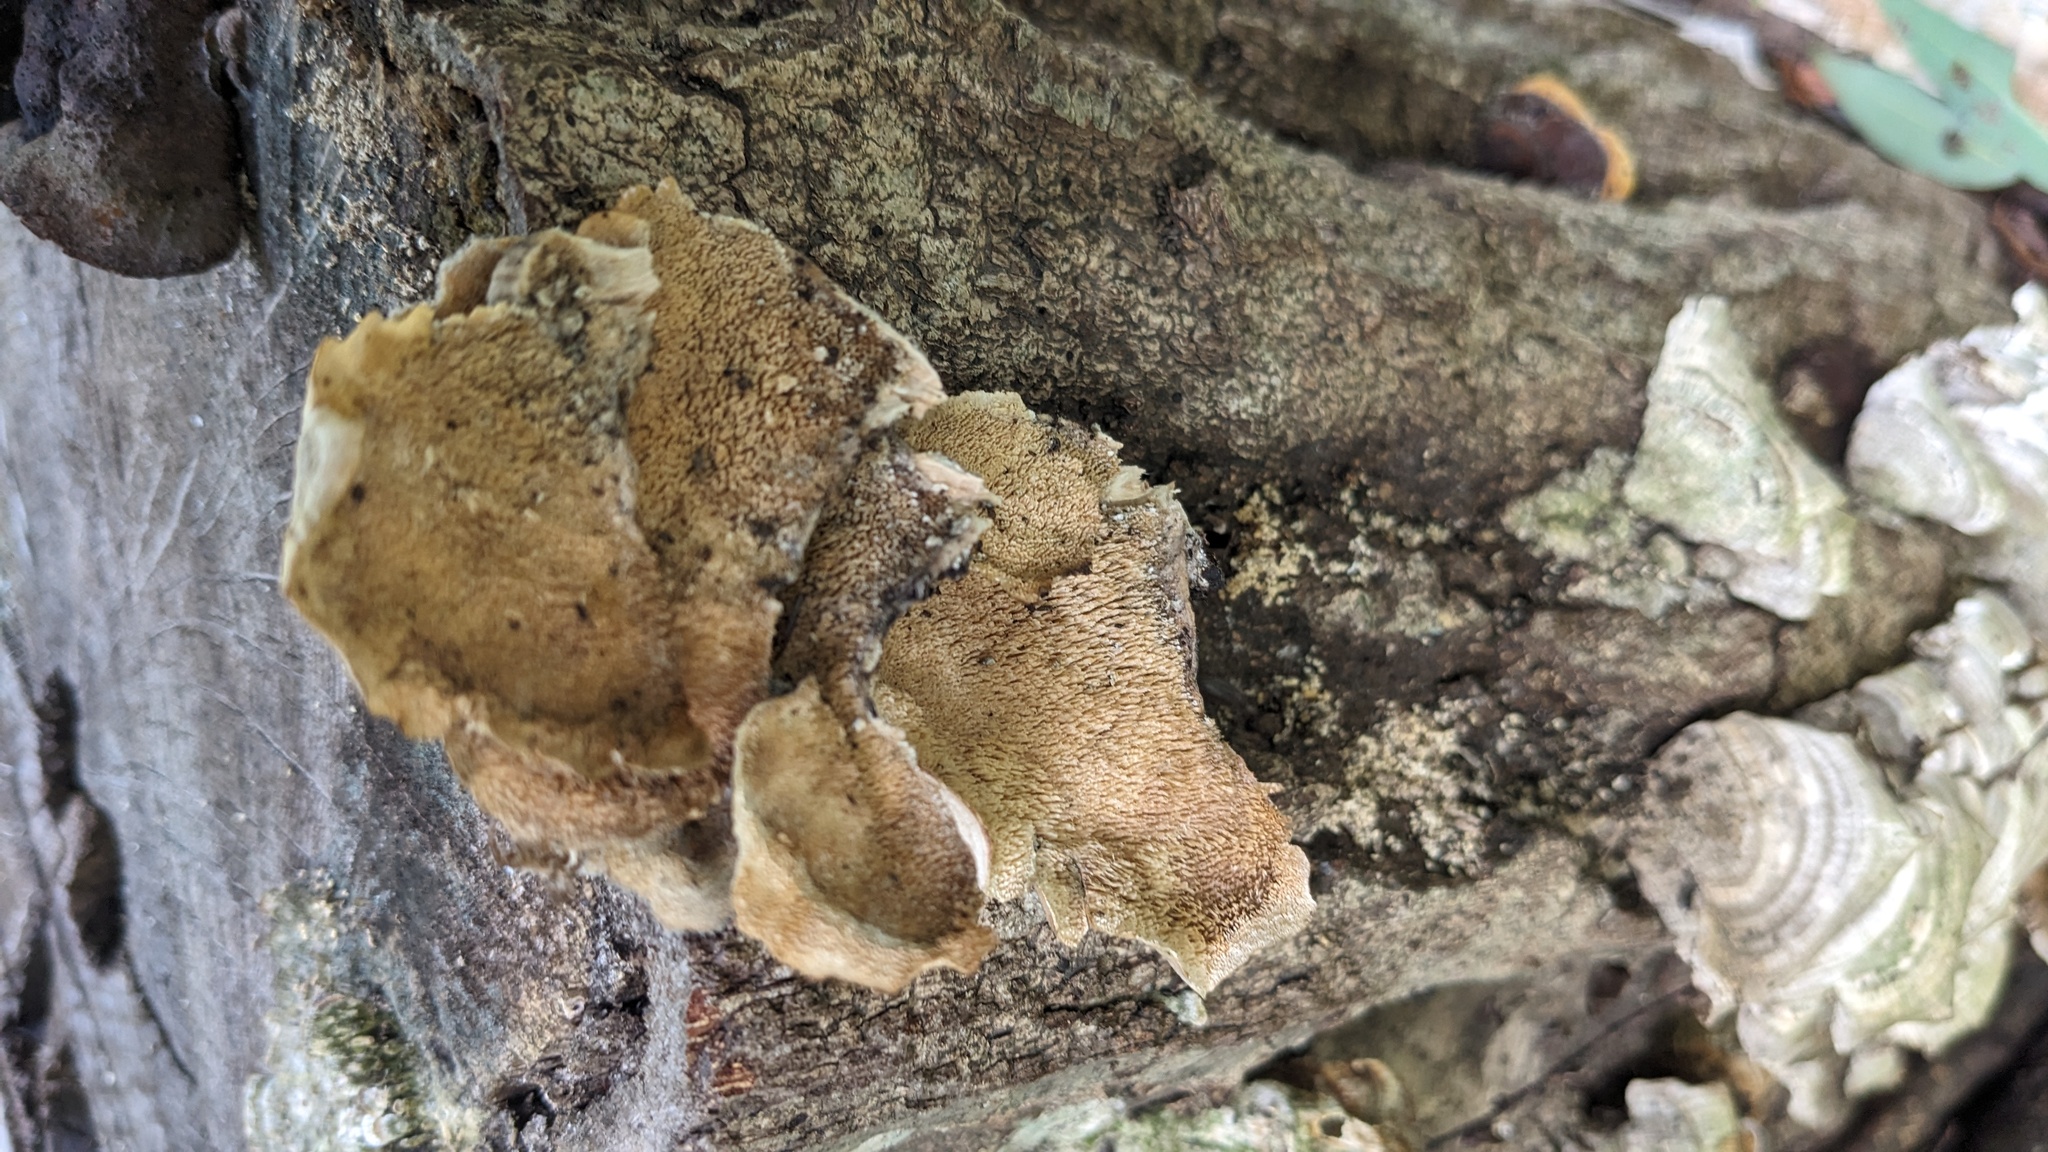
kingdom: Fungi
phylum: Basidiomycota
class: Agaricomycetes
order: Hymenochaetales
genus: Trichaptum
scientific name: Trichaptum biforme
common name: Violet-toothed polypore
